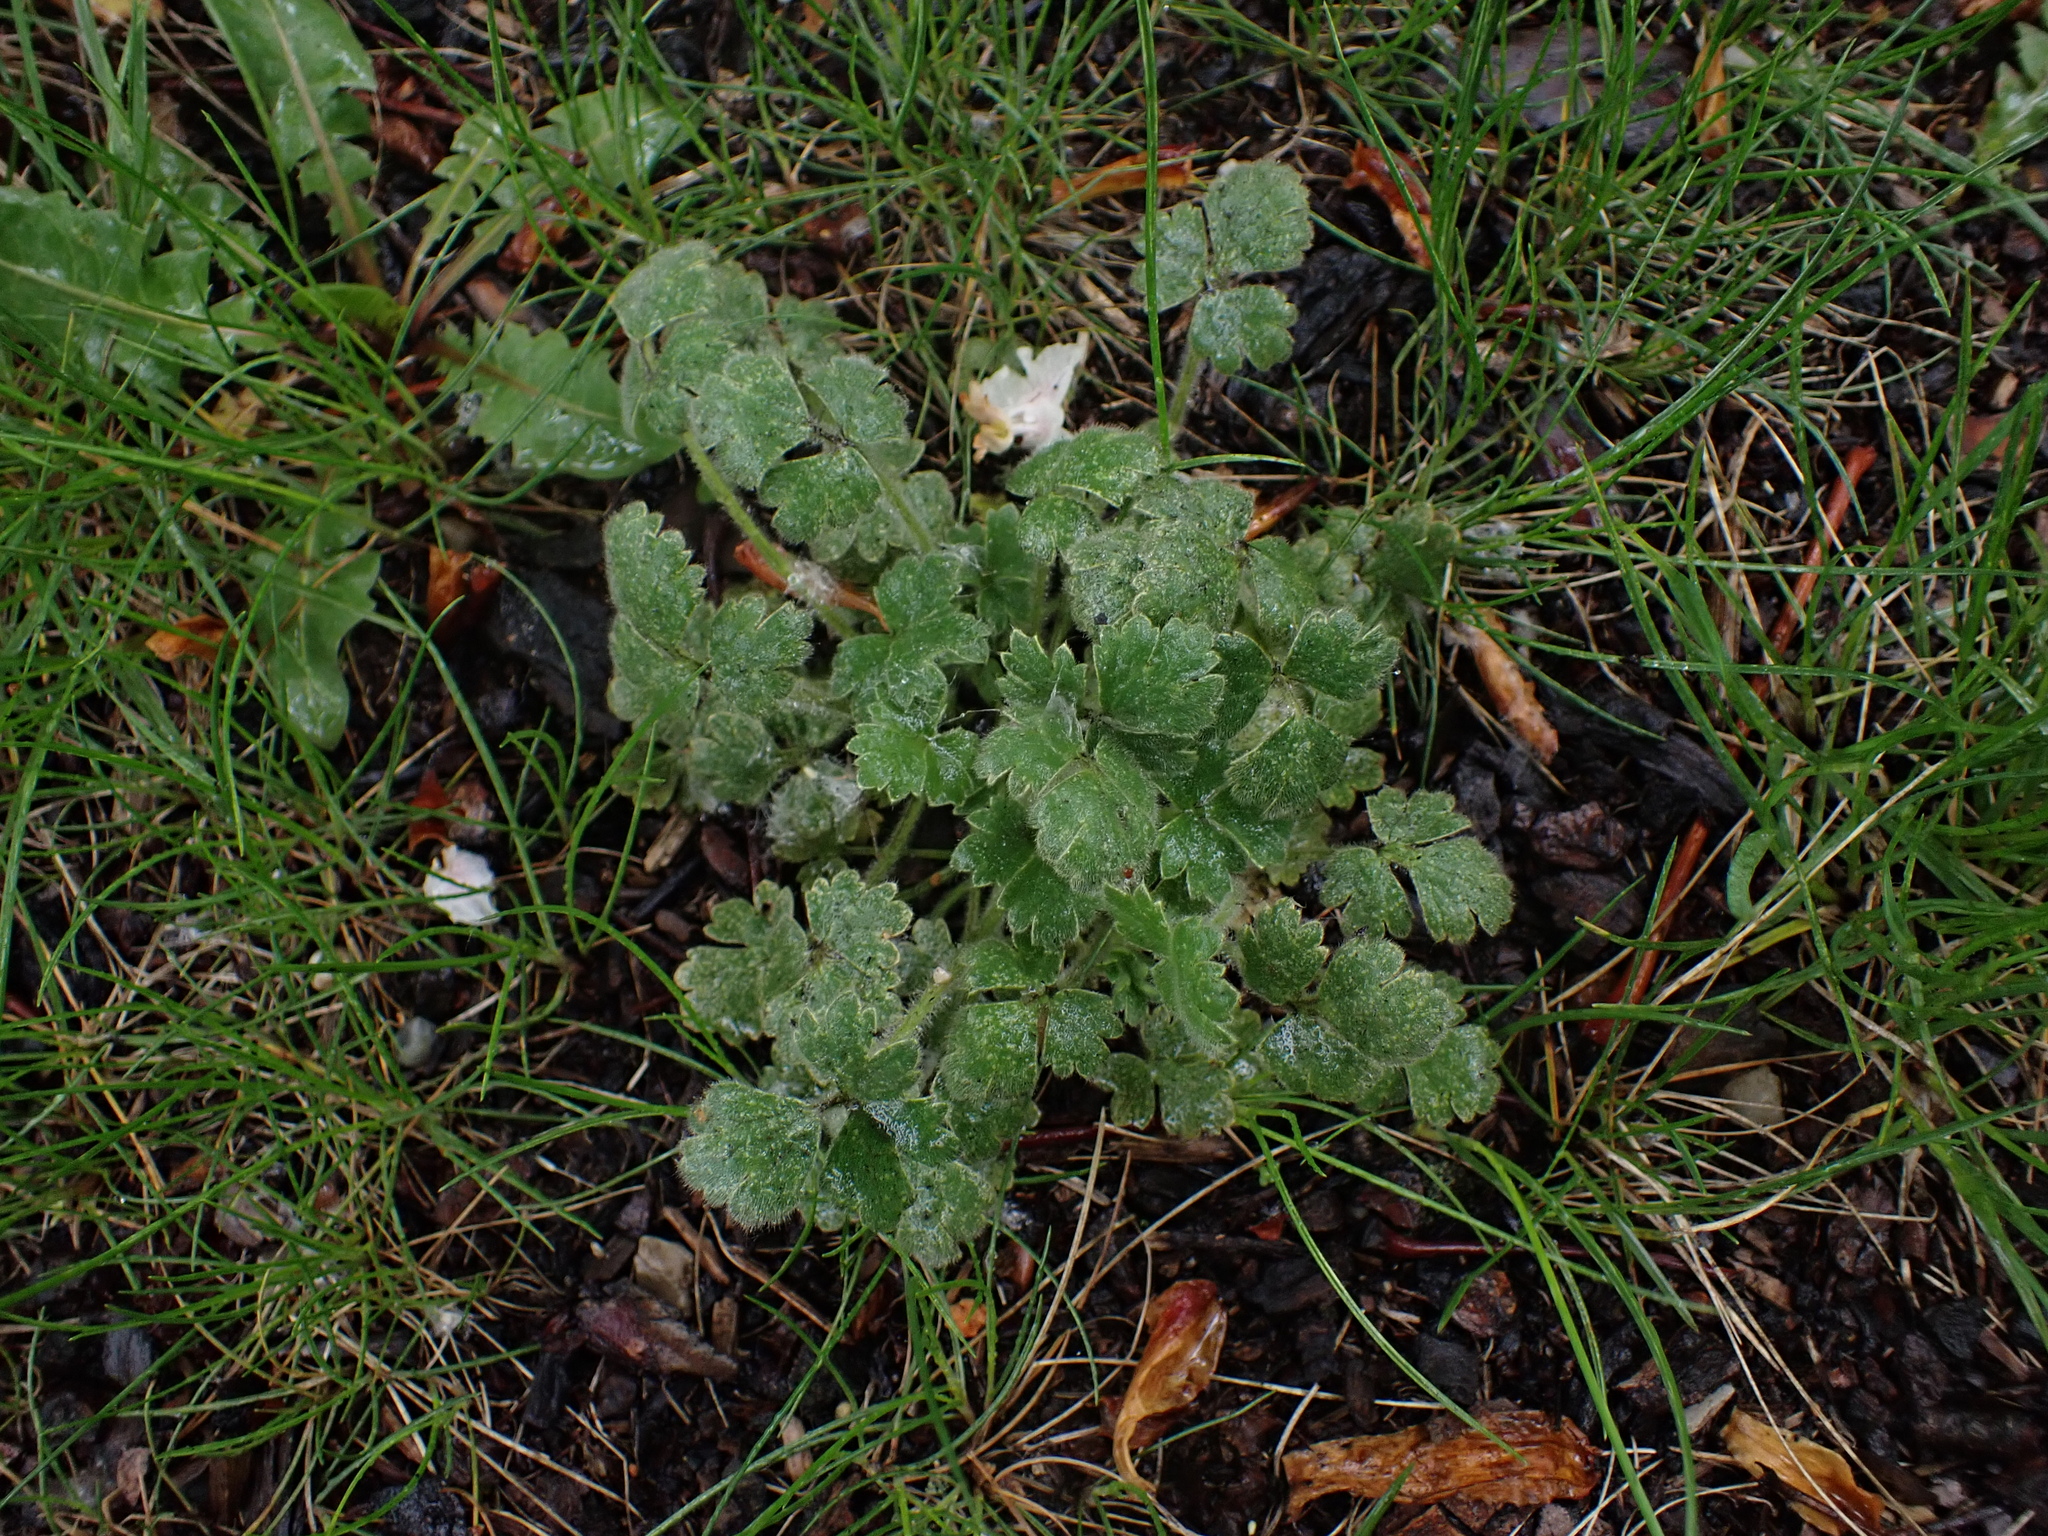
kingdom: Plantae
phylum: Tracheophyta
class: Magnoliopsida
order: Ranunculales
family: Ranunculaceae
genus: Ranunculus
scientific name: Ranunculus bulbosus
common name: Bulbous buttercup
